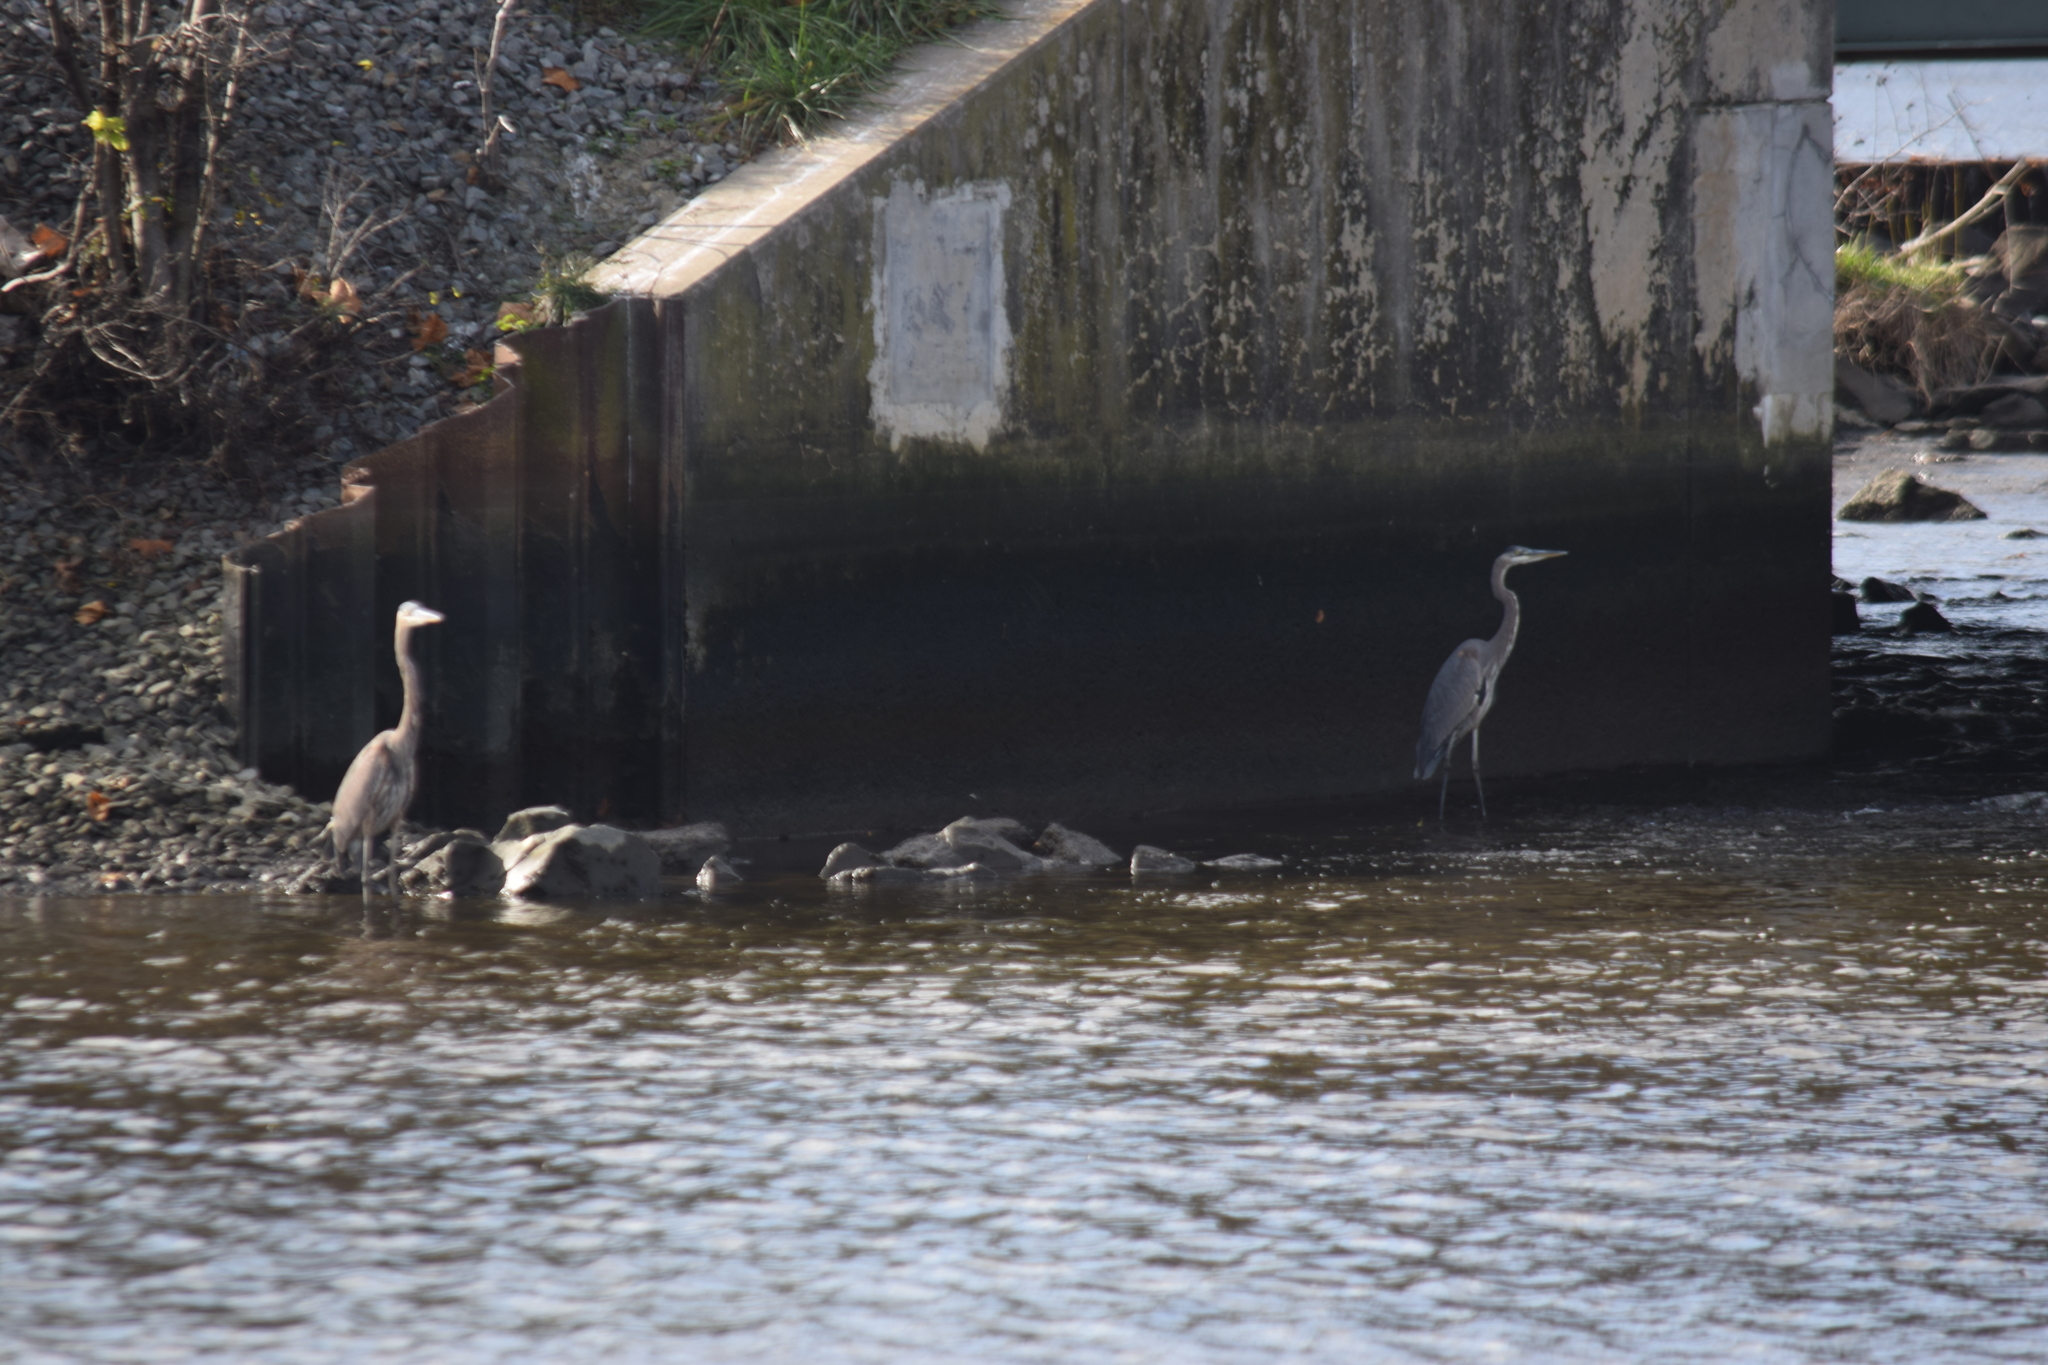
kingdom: Animalia
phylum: Chordata
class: Aves
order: Pelecaniformes
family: Ardeidae
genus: Ardea
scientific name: Ardea herodias
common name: Great blue heron
